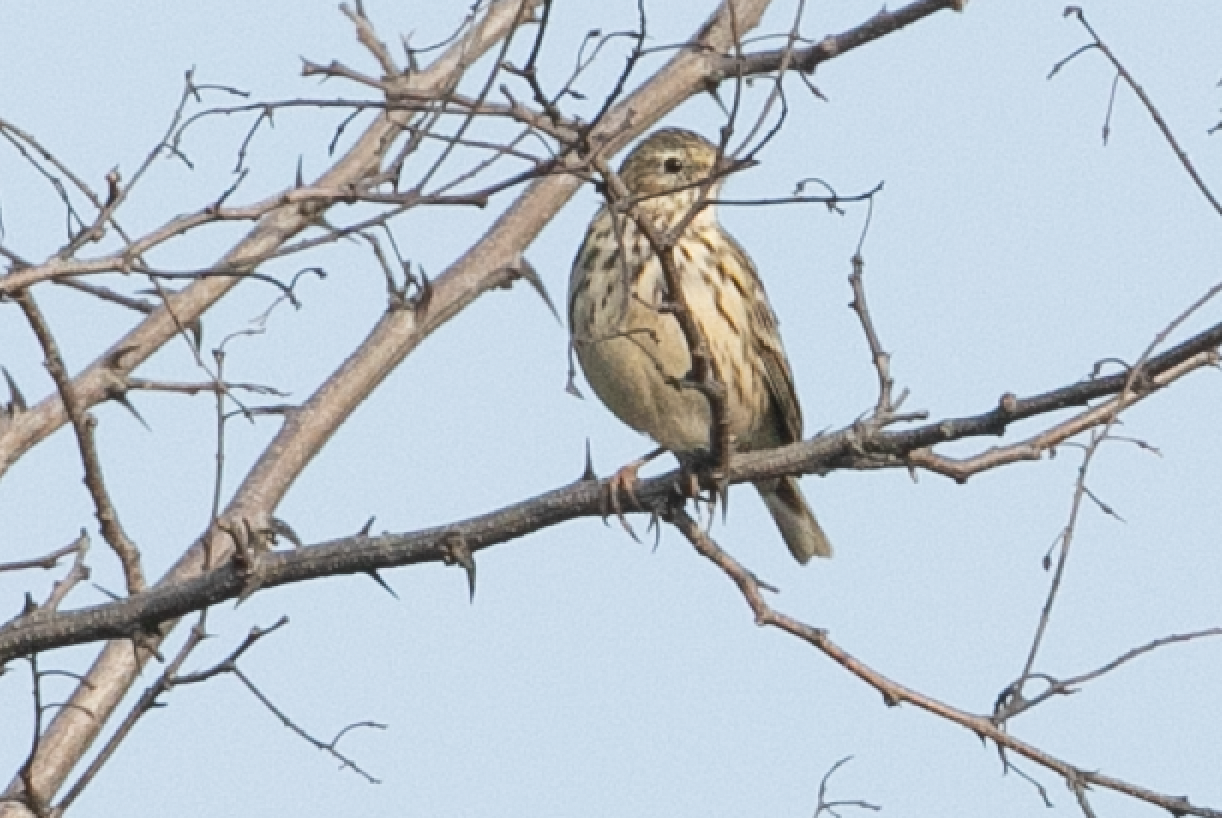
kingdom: Animalia
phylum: Chordata
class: Aves
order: Passeriformes
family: Motacillidae
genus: Anthus
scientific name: Anthus pratensis
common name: Meadow pipit
